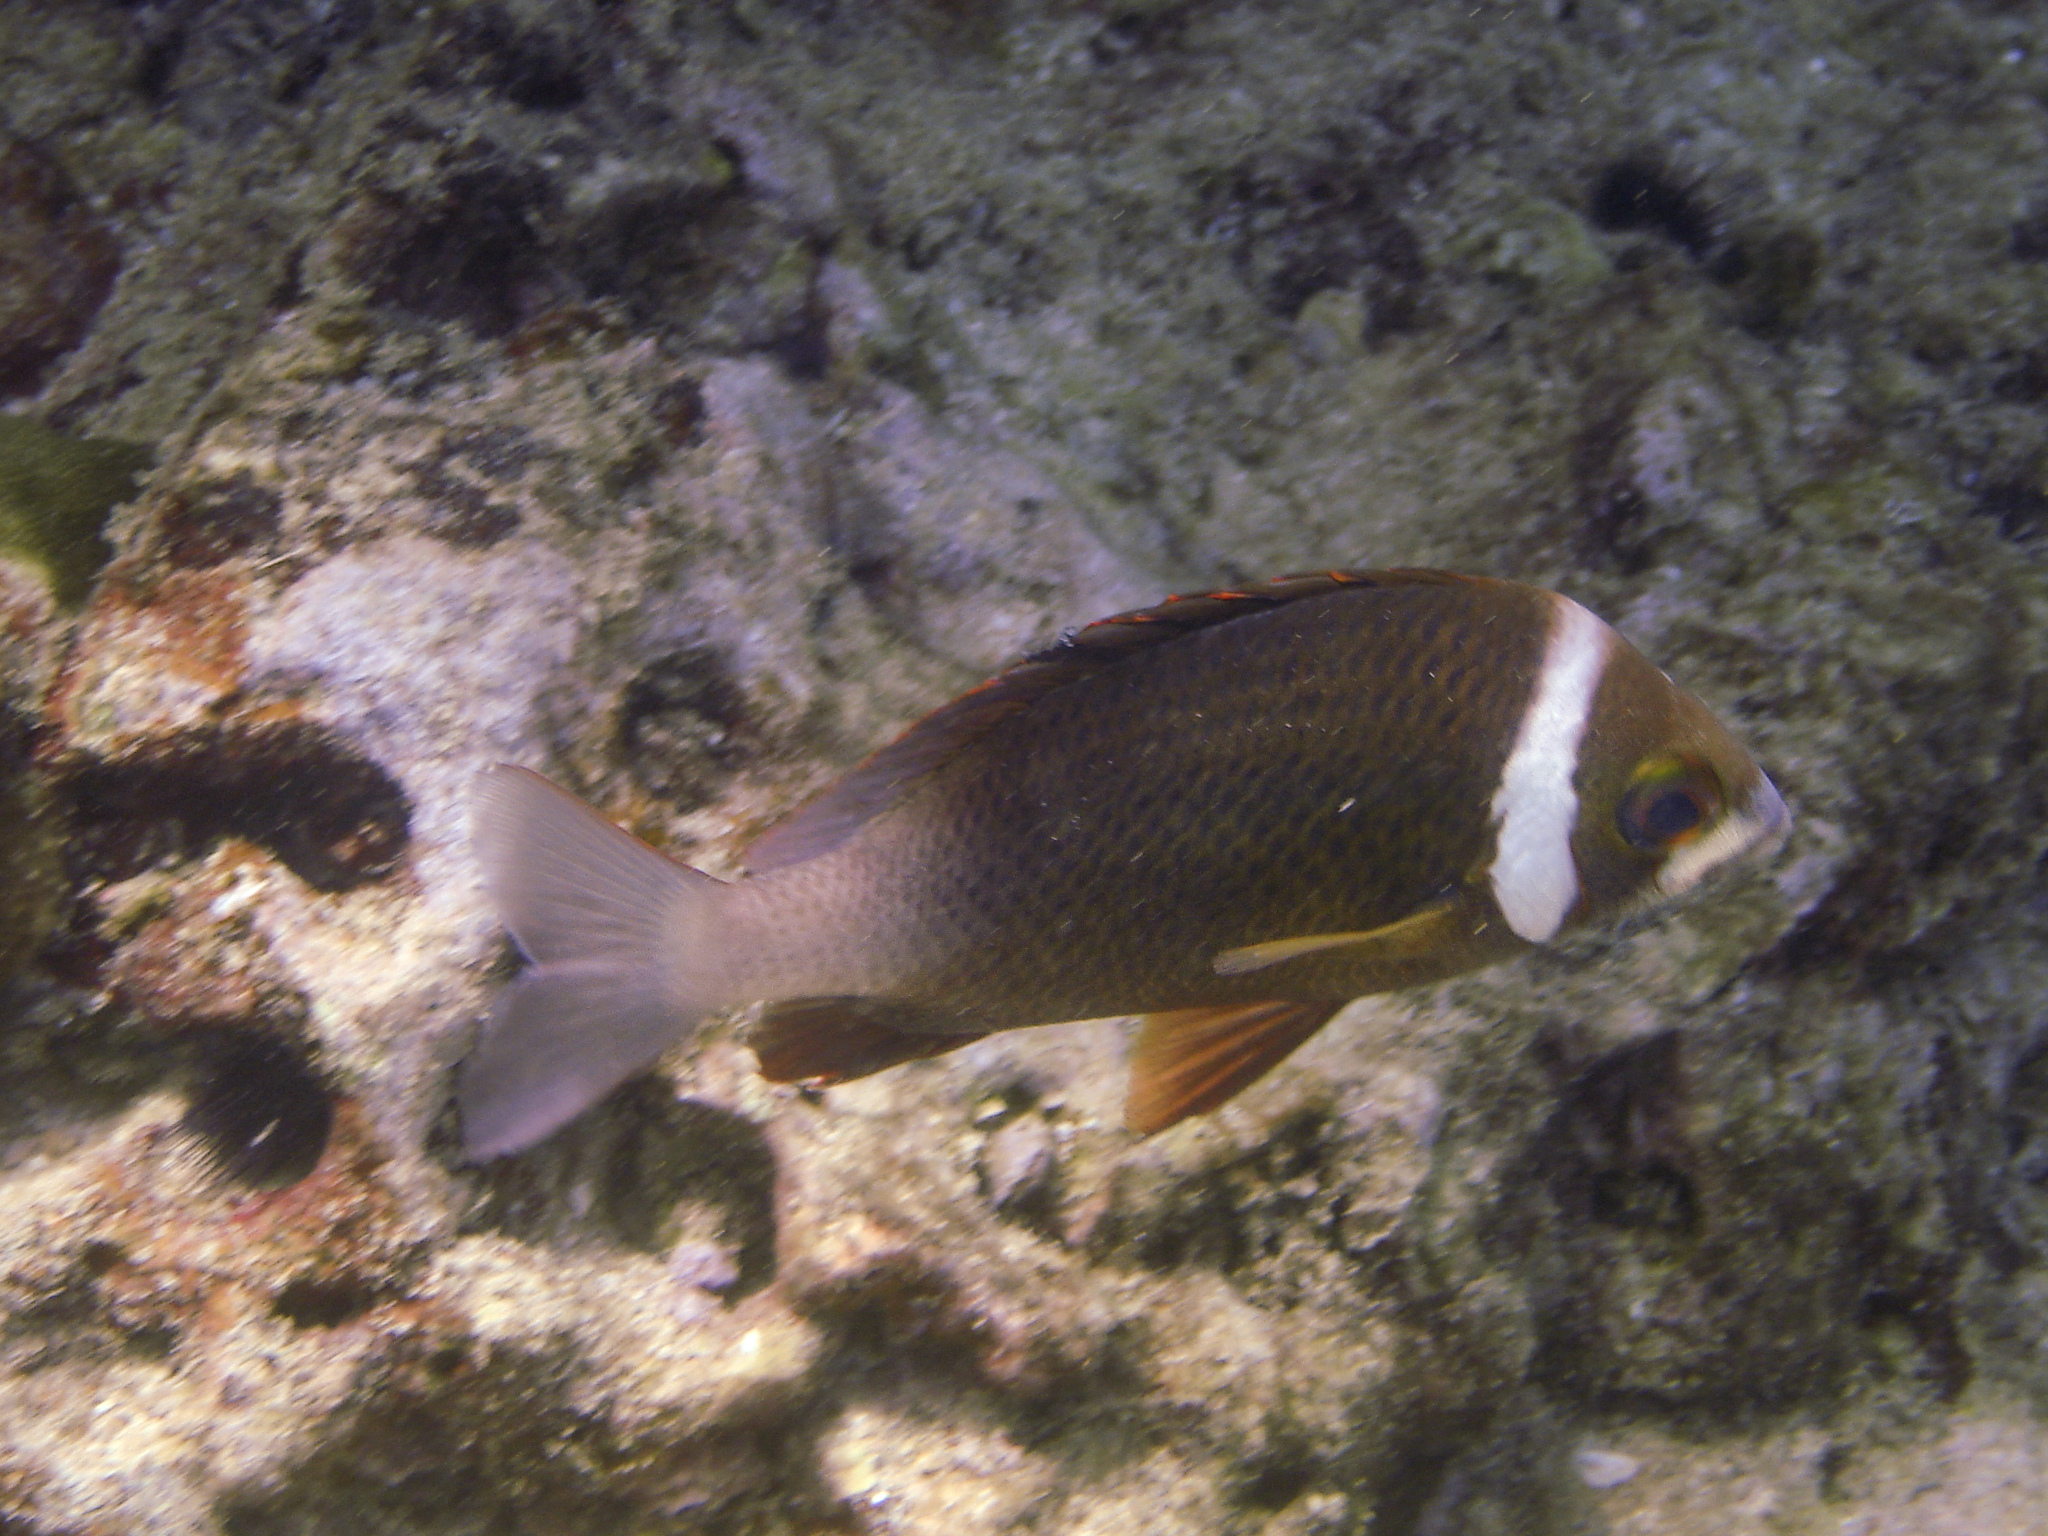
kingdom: Animalia
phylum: Chordata
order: Perciformes
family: Nemipteridae
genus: Scolopsis
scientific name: Scolopsis vosmeri
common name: Whitecheek monocle bream
